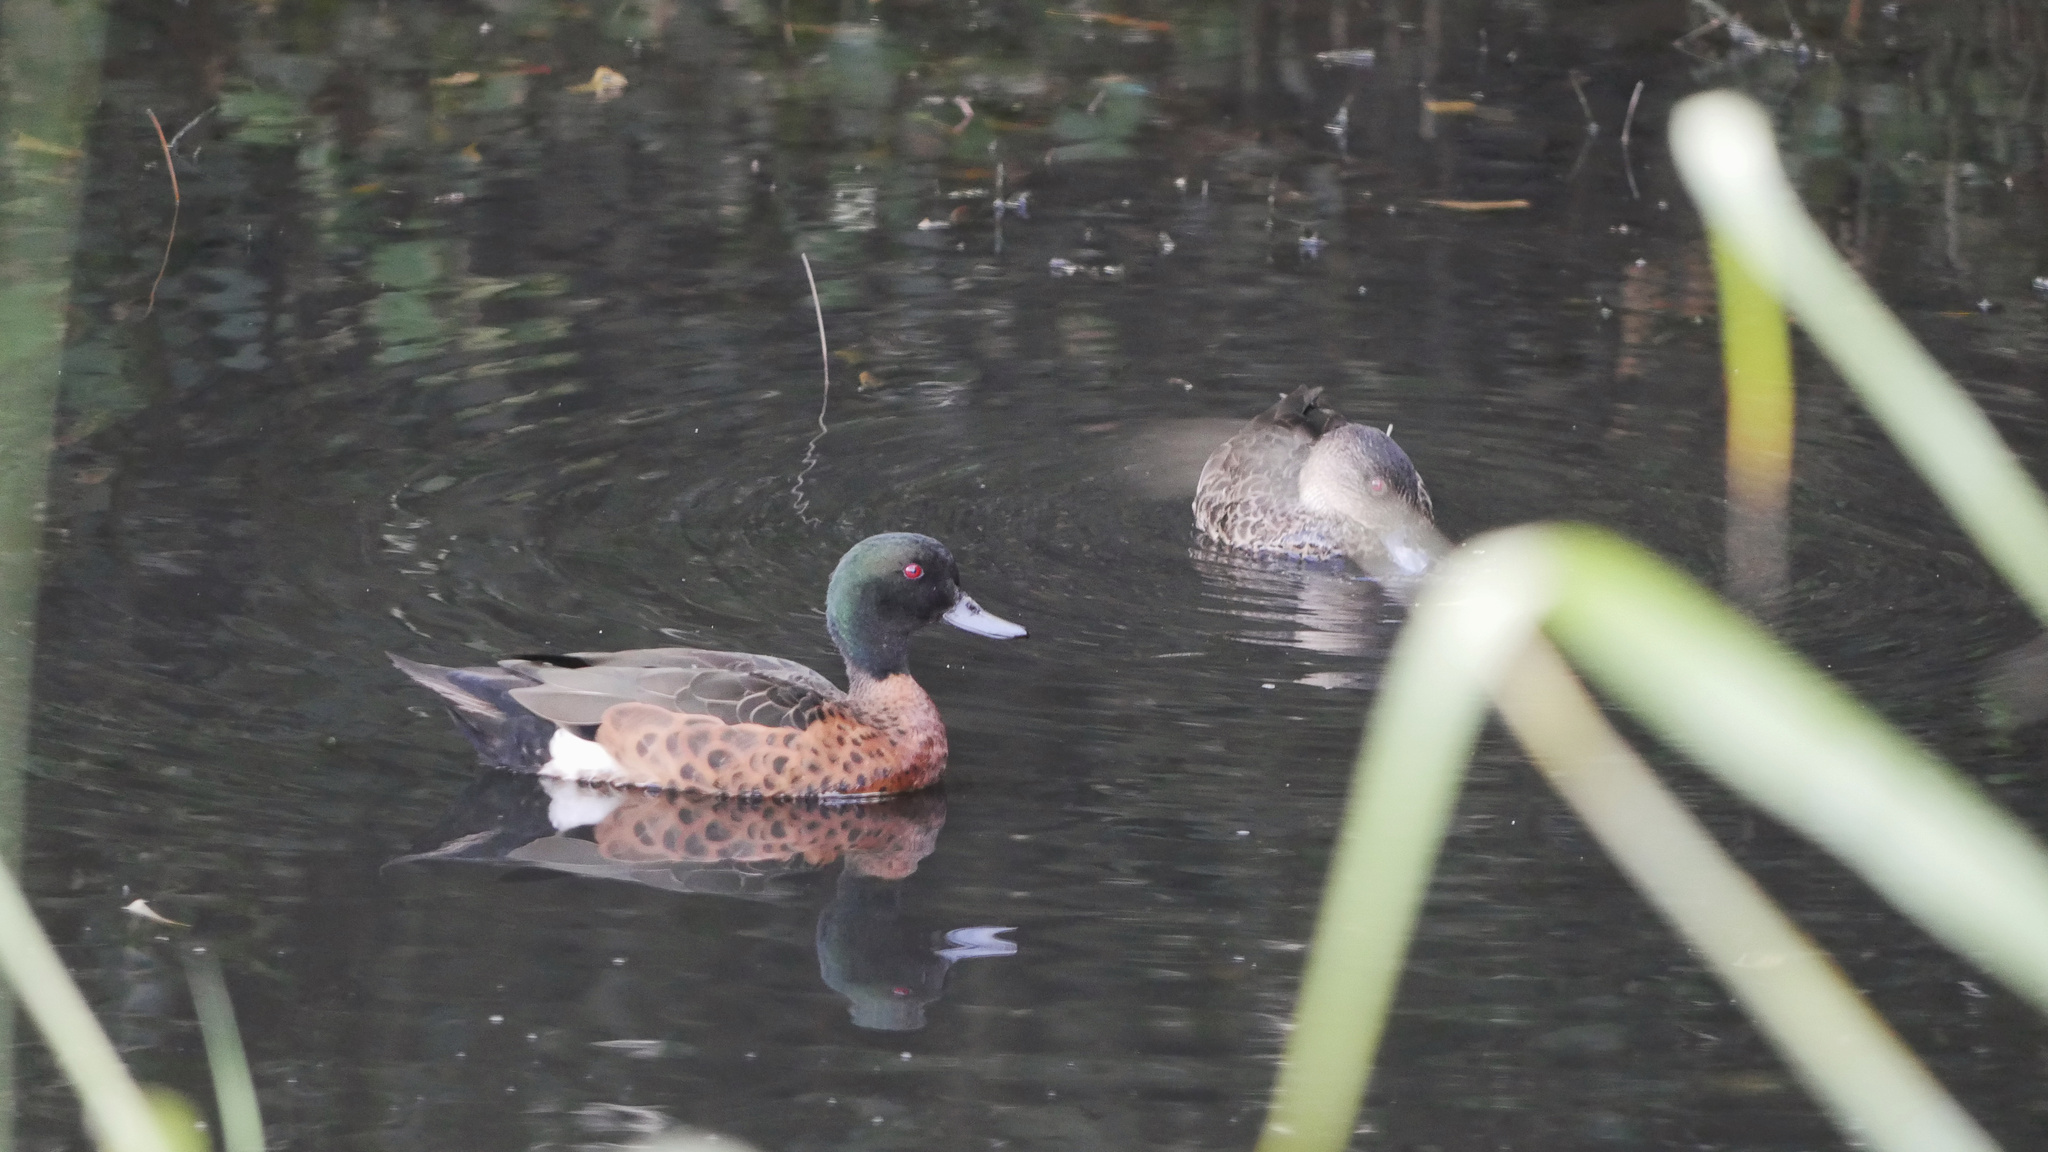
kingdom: Animalia
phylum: Chordata
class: Aves
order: Anseriformes
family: Anatidae
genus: Anas
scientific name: Anas castanea
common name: Chestnut teal
